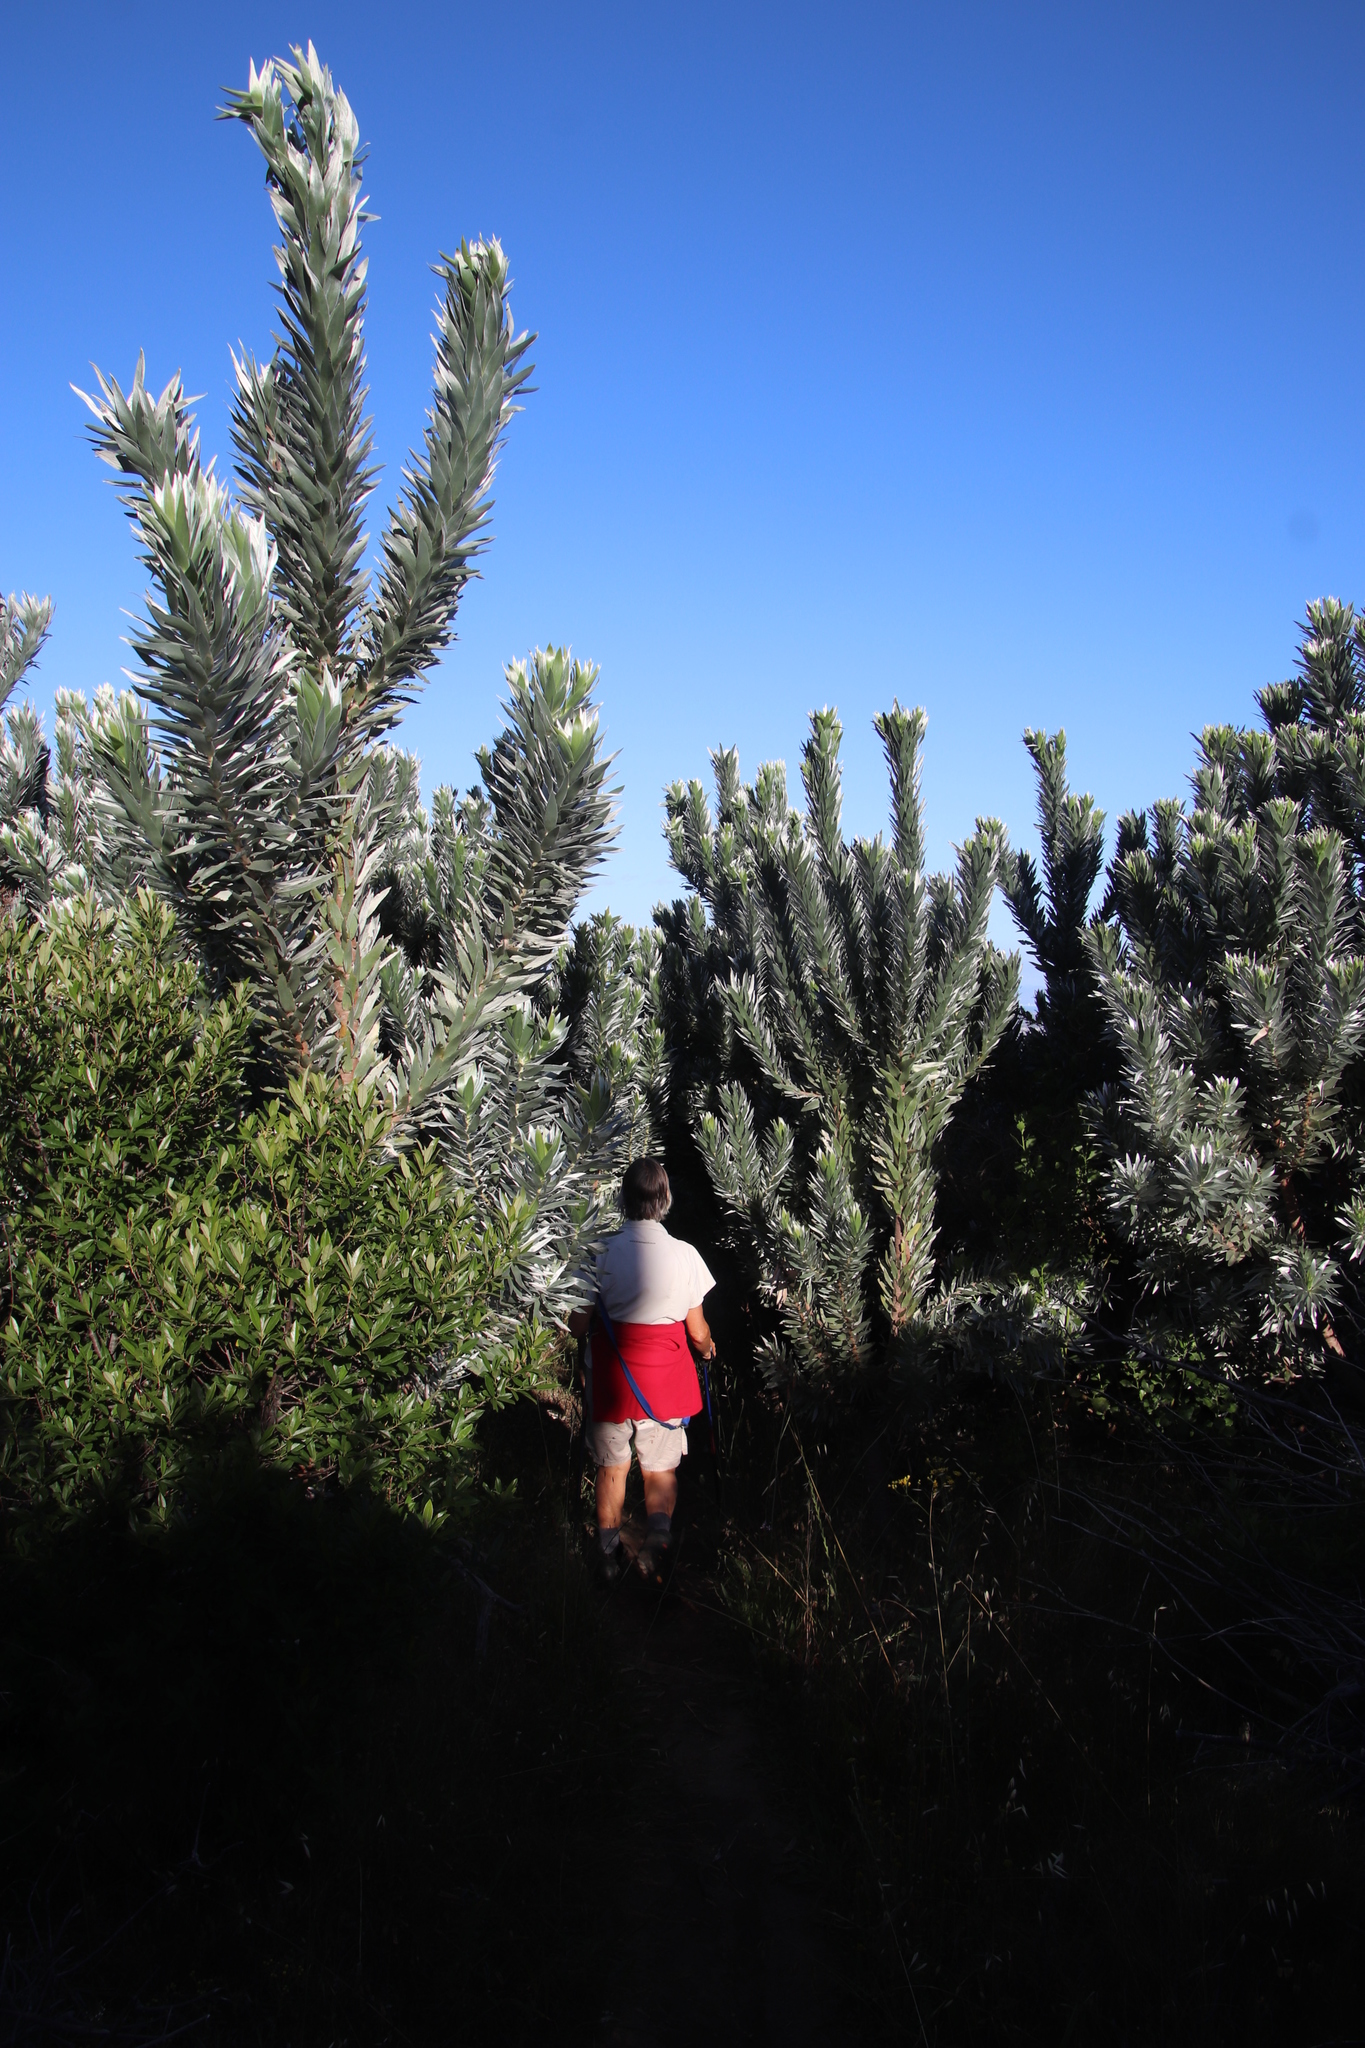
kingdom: Plantae
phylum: Tracheophyta
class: Magnoliopsida
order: Proteales
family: Proteaceae
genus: Leucadendron
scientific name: Leucadendron argenteum
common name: Cape silver tree
